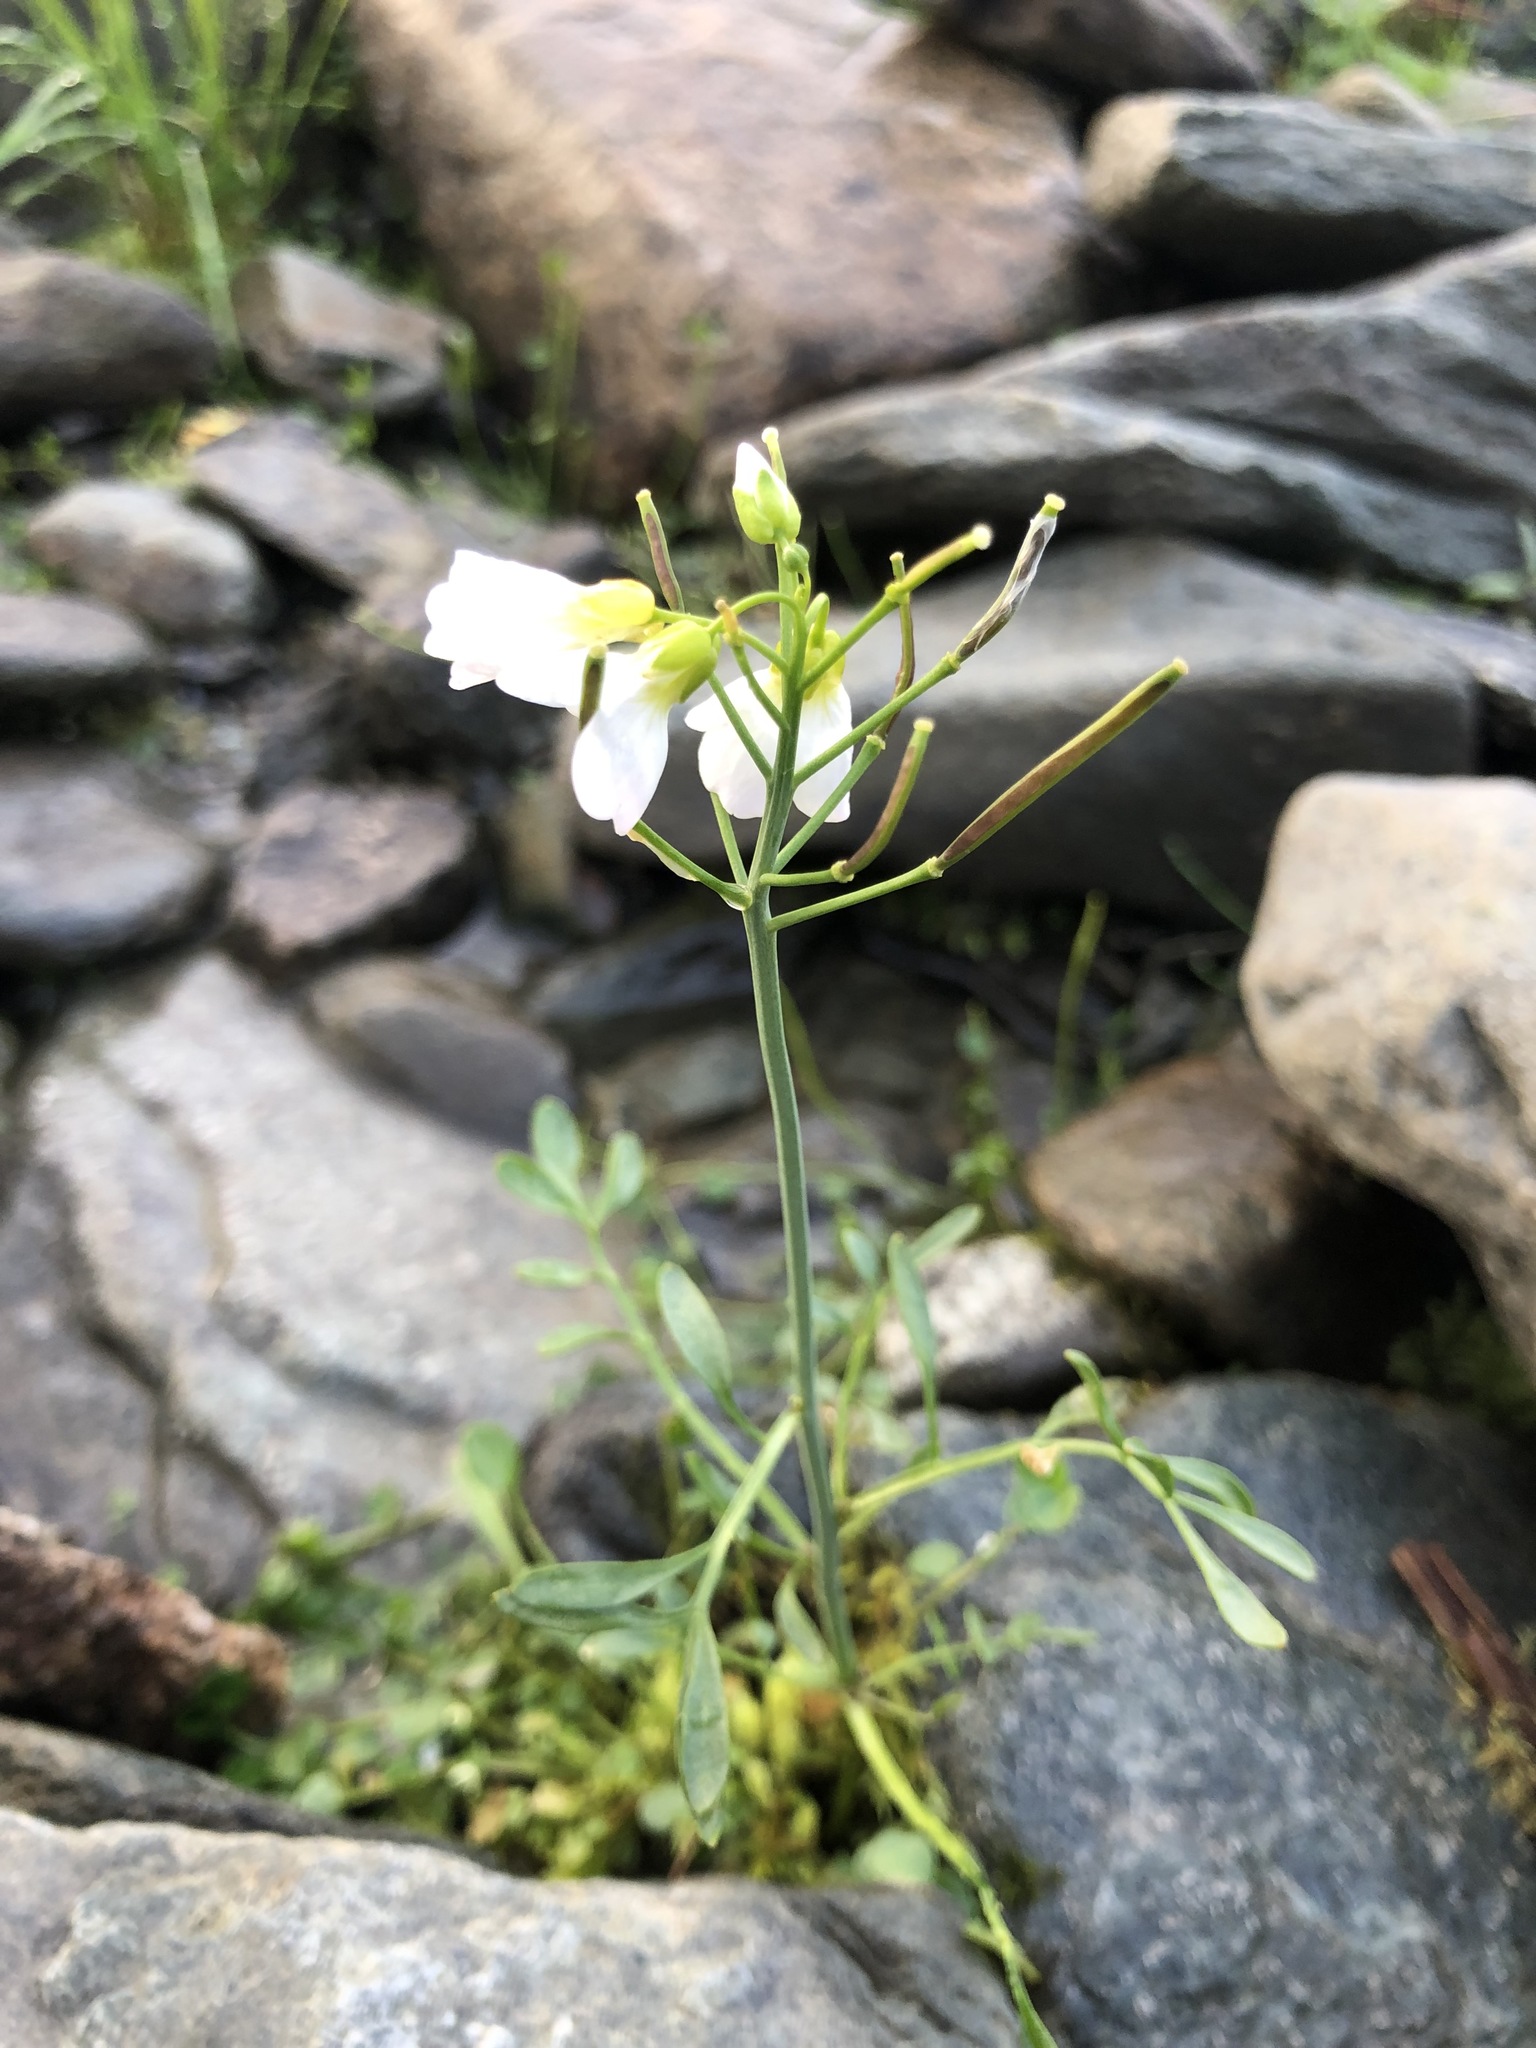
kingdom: Plantae
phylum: Tracheophyta
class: Magnoliopsida
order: Brassicales
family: Brassicaceae
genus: Cardamine
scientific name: Cardamine dentata
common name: Toothed bittercress
